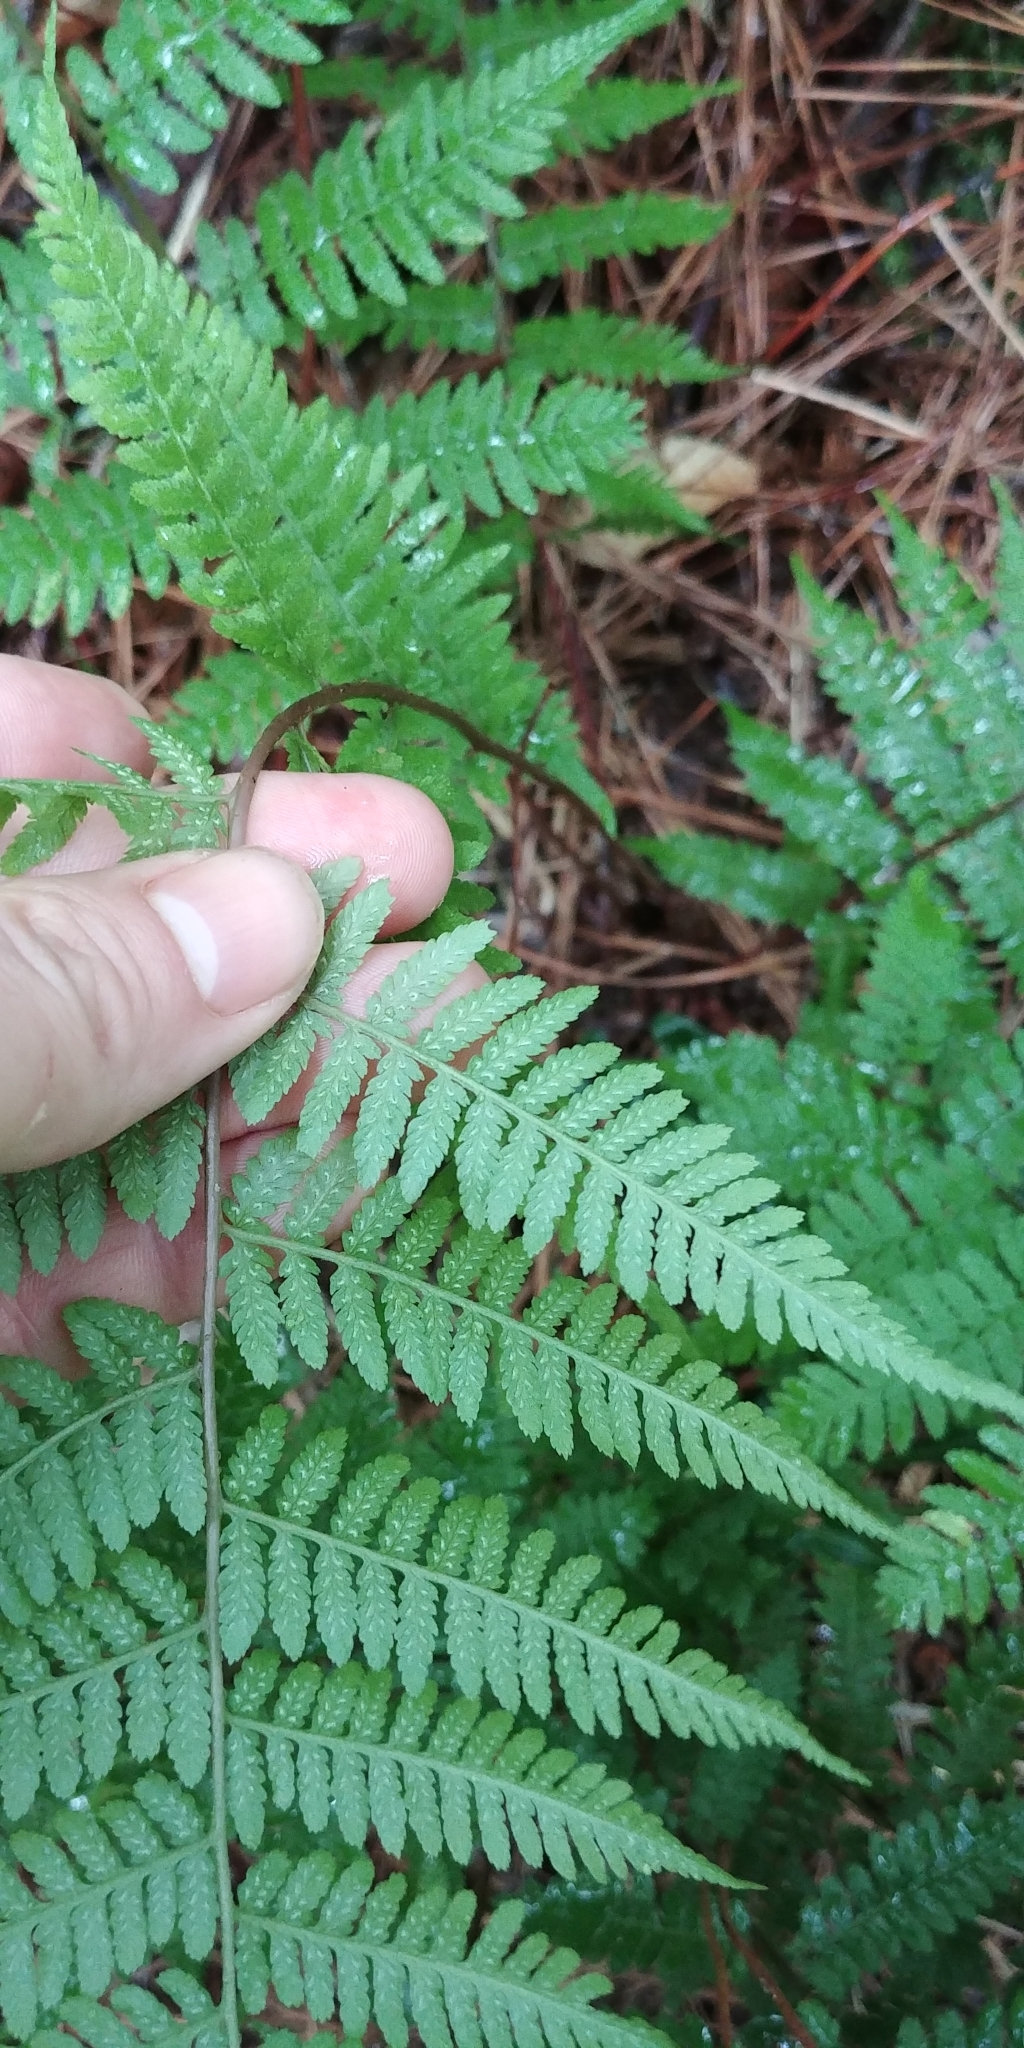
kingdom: Plantae
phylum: Tracheophyta
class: Polypodiopsida
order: Polypodiales
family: Athyriaceae
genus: Athyrium
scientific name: Athyrium asplenioides
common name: Southern lady fern
